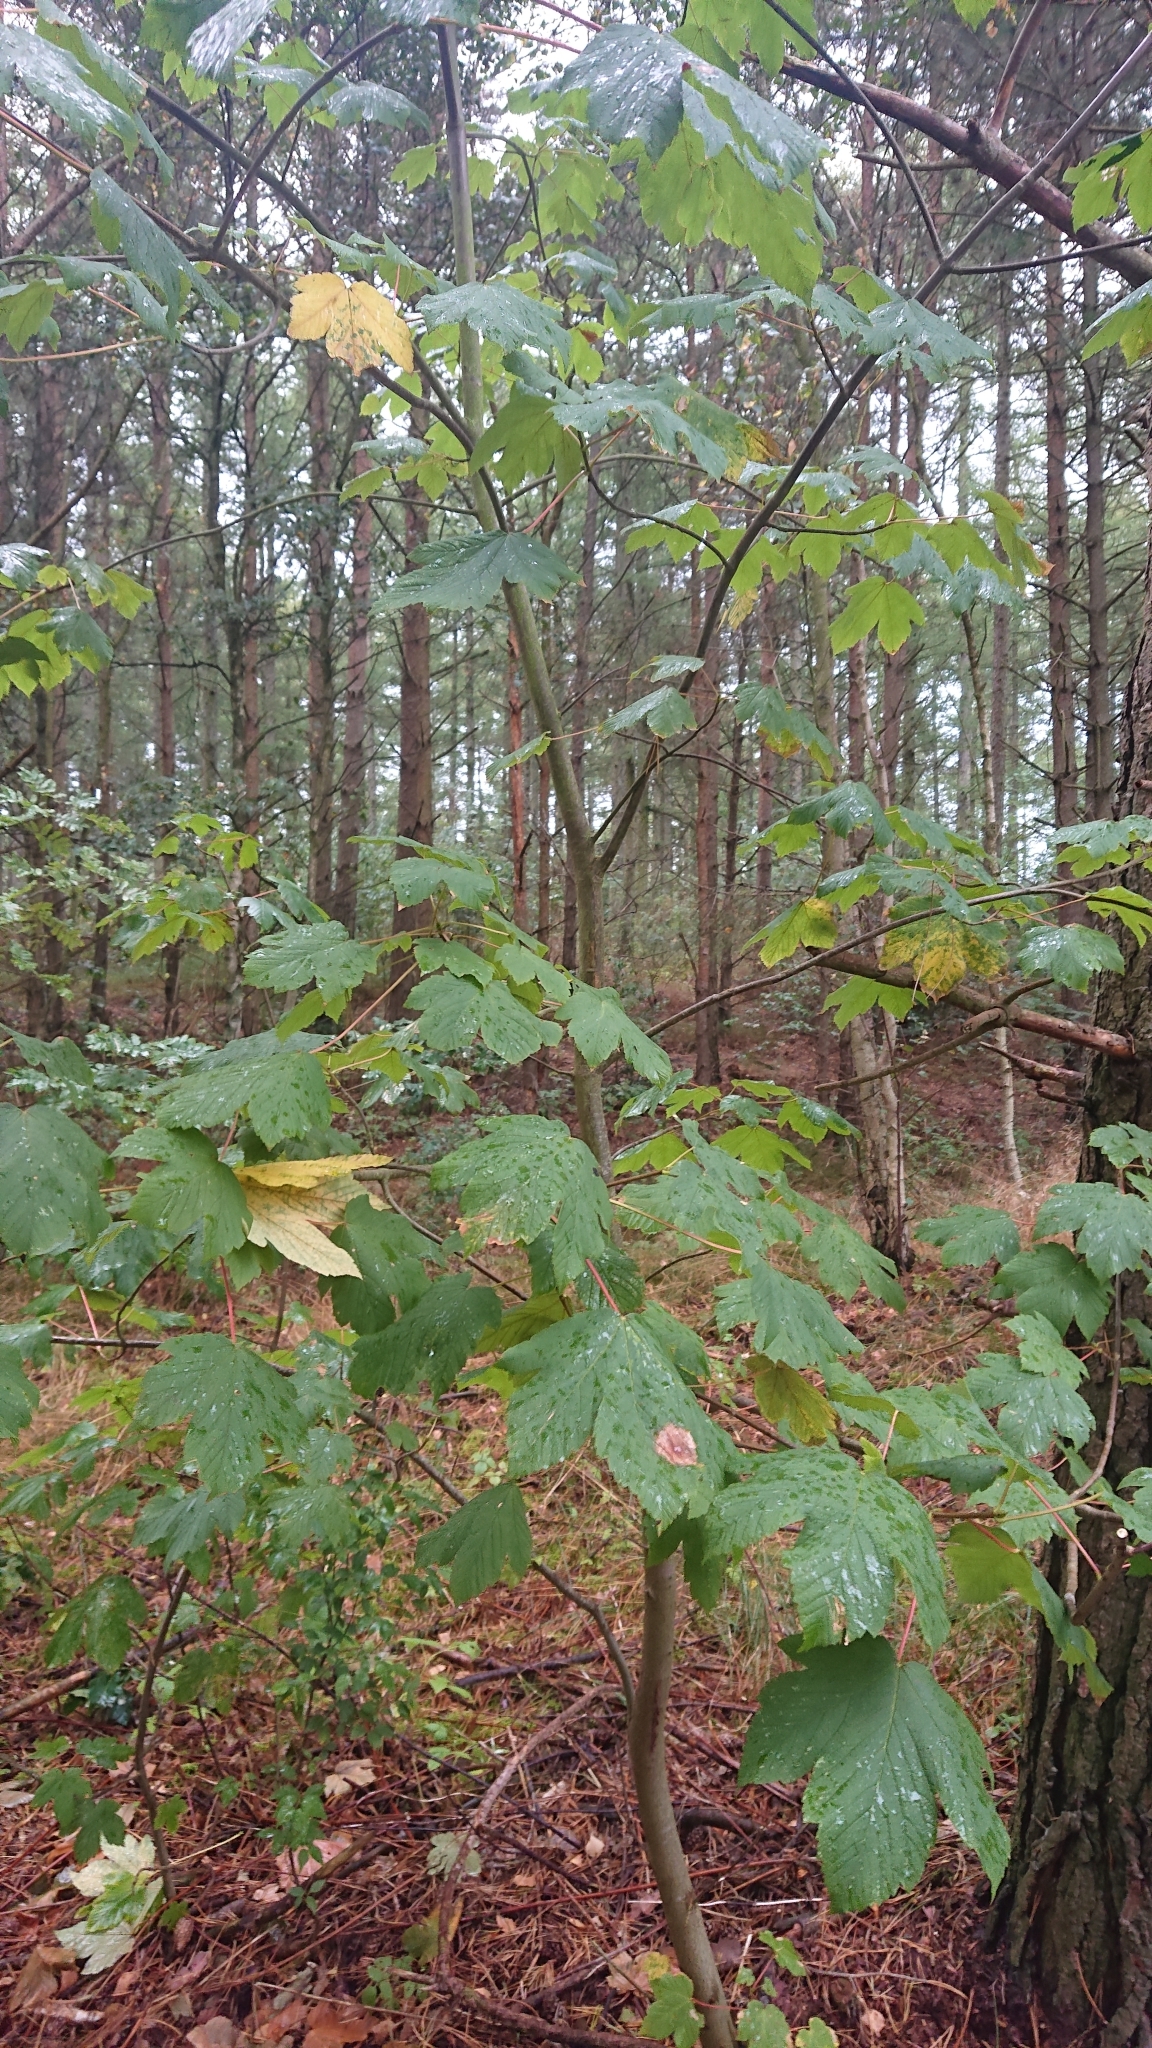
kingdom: Plantae
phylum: Tracheophyta
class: Magnoliopsida
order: Sapindales
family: Sapindaceae
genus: Acer
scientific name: Acer pseudoplatanus
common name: Sycamore
